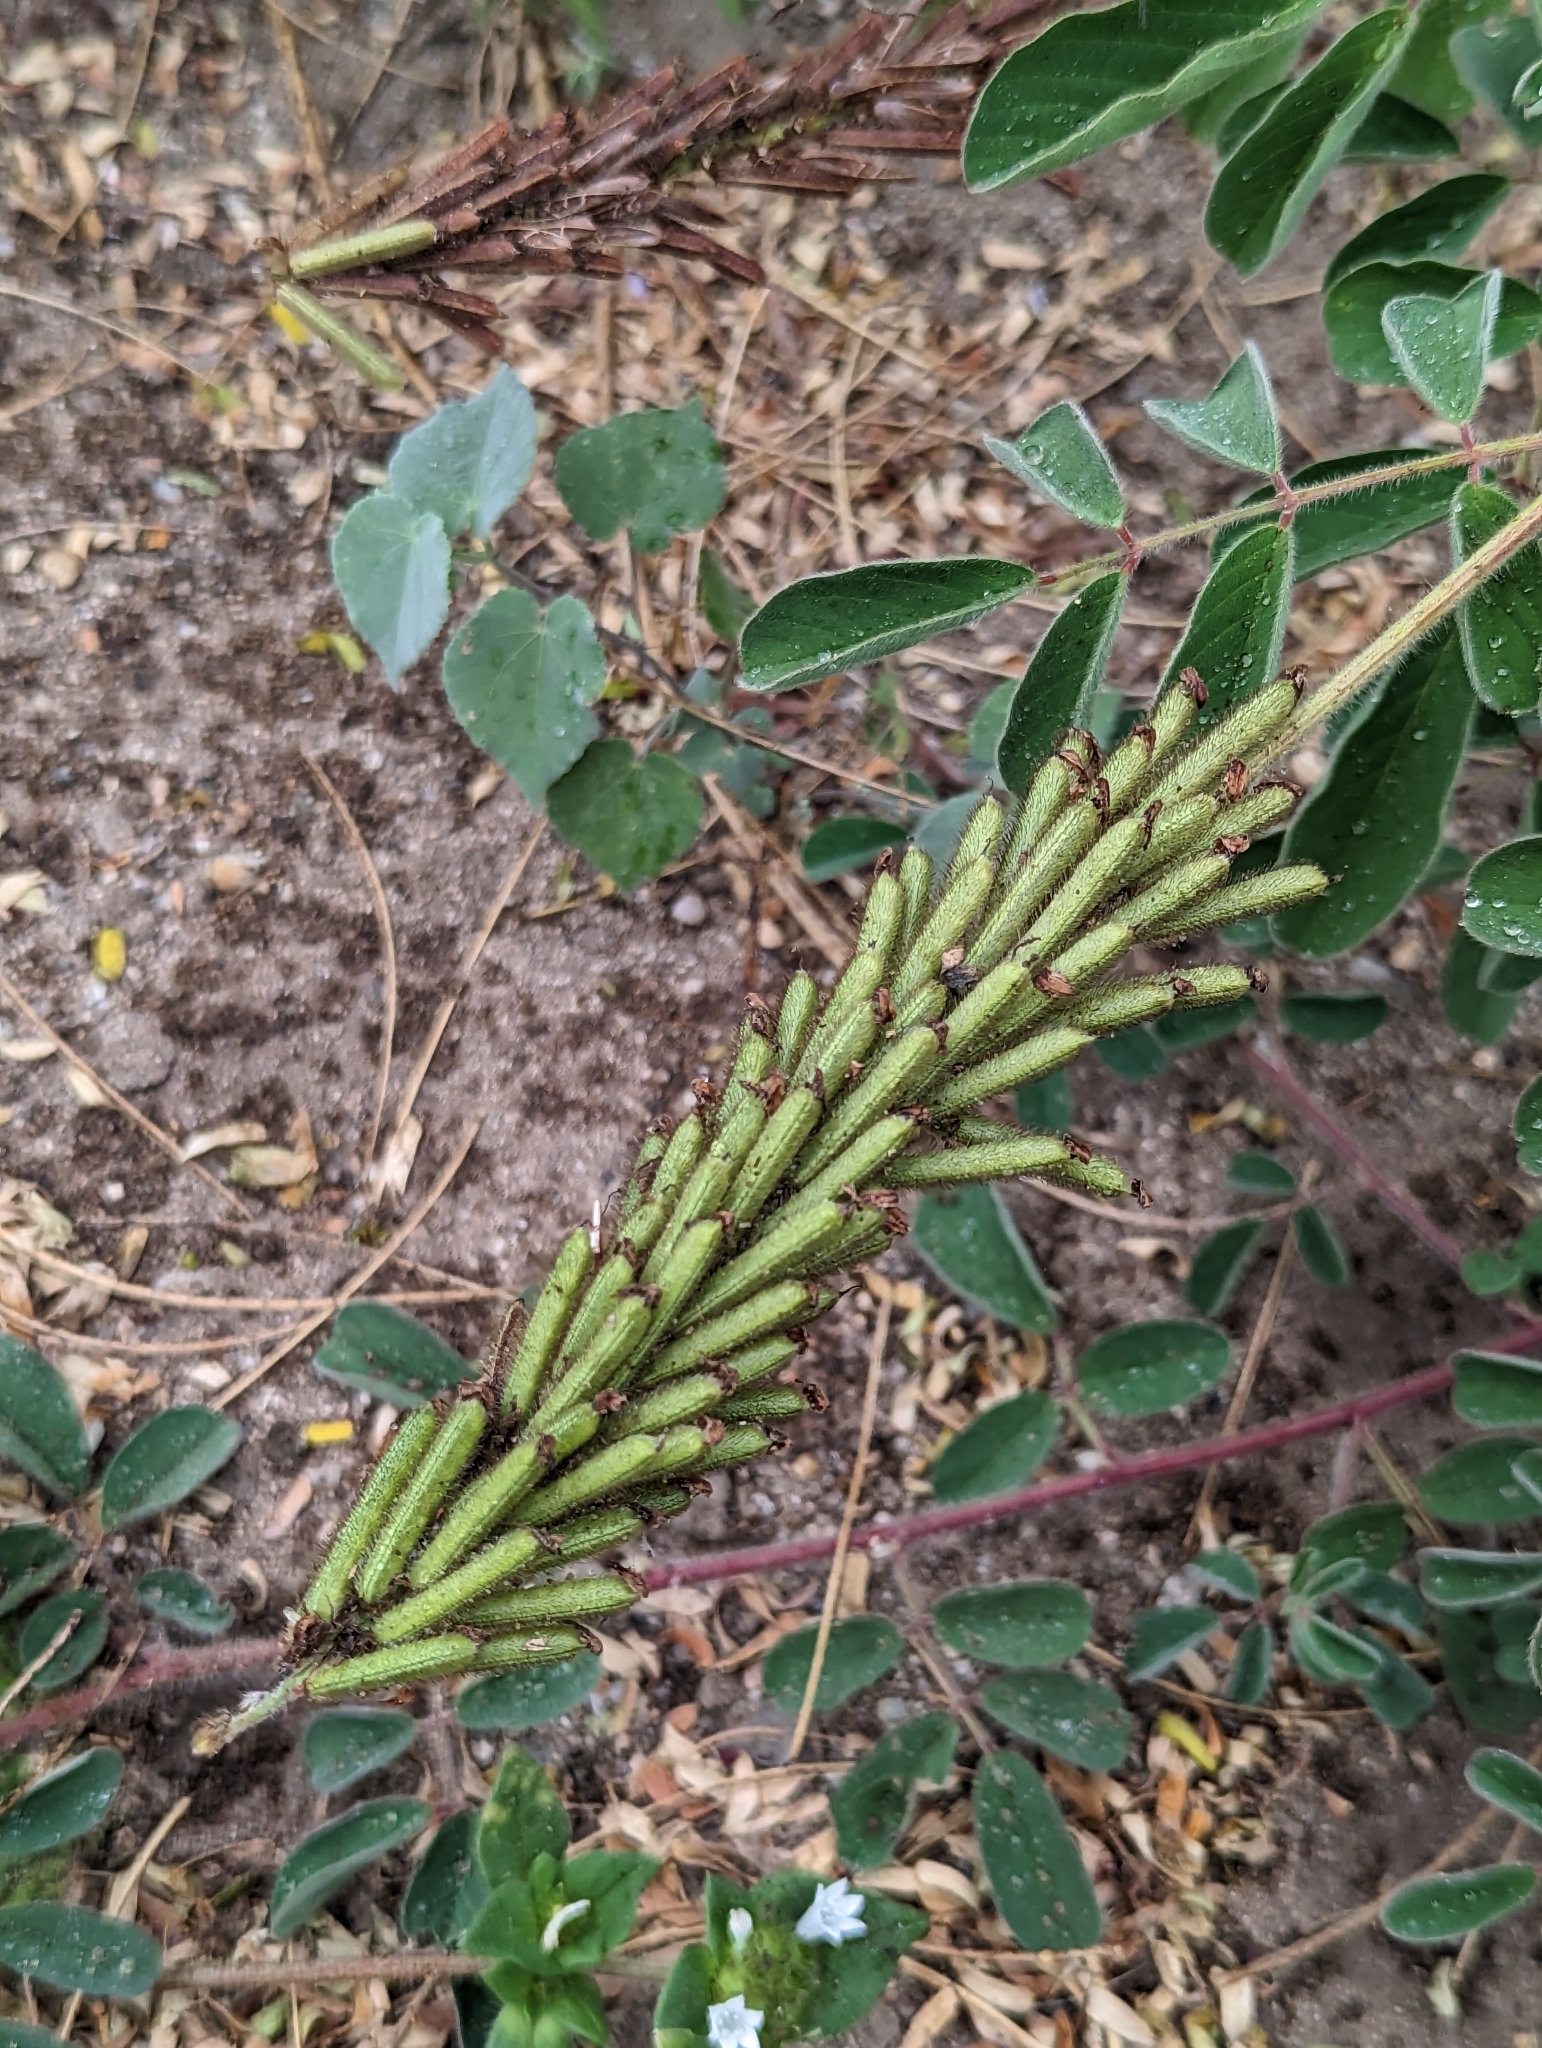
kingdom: Plantae
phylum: Tracheophyta
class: Magnoliopsida
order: Fabales
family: Fabaceae
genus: Indigofera
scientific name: Indigofera hirsuta
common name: Hairy indigo
